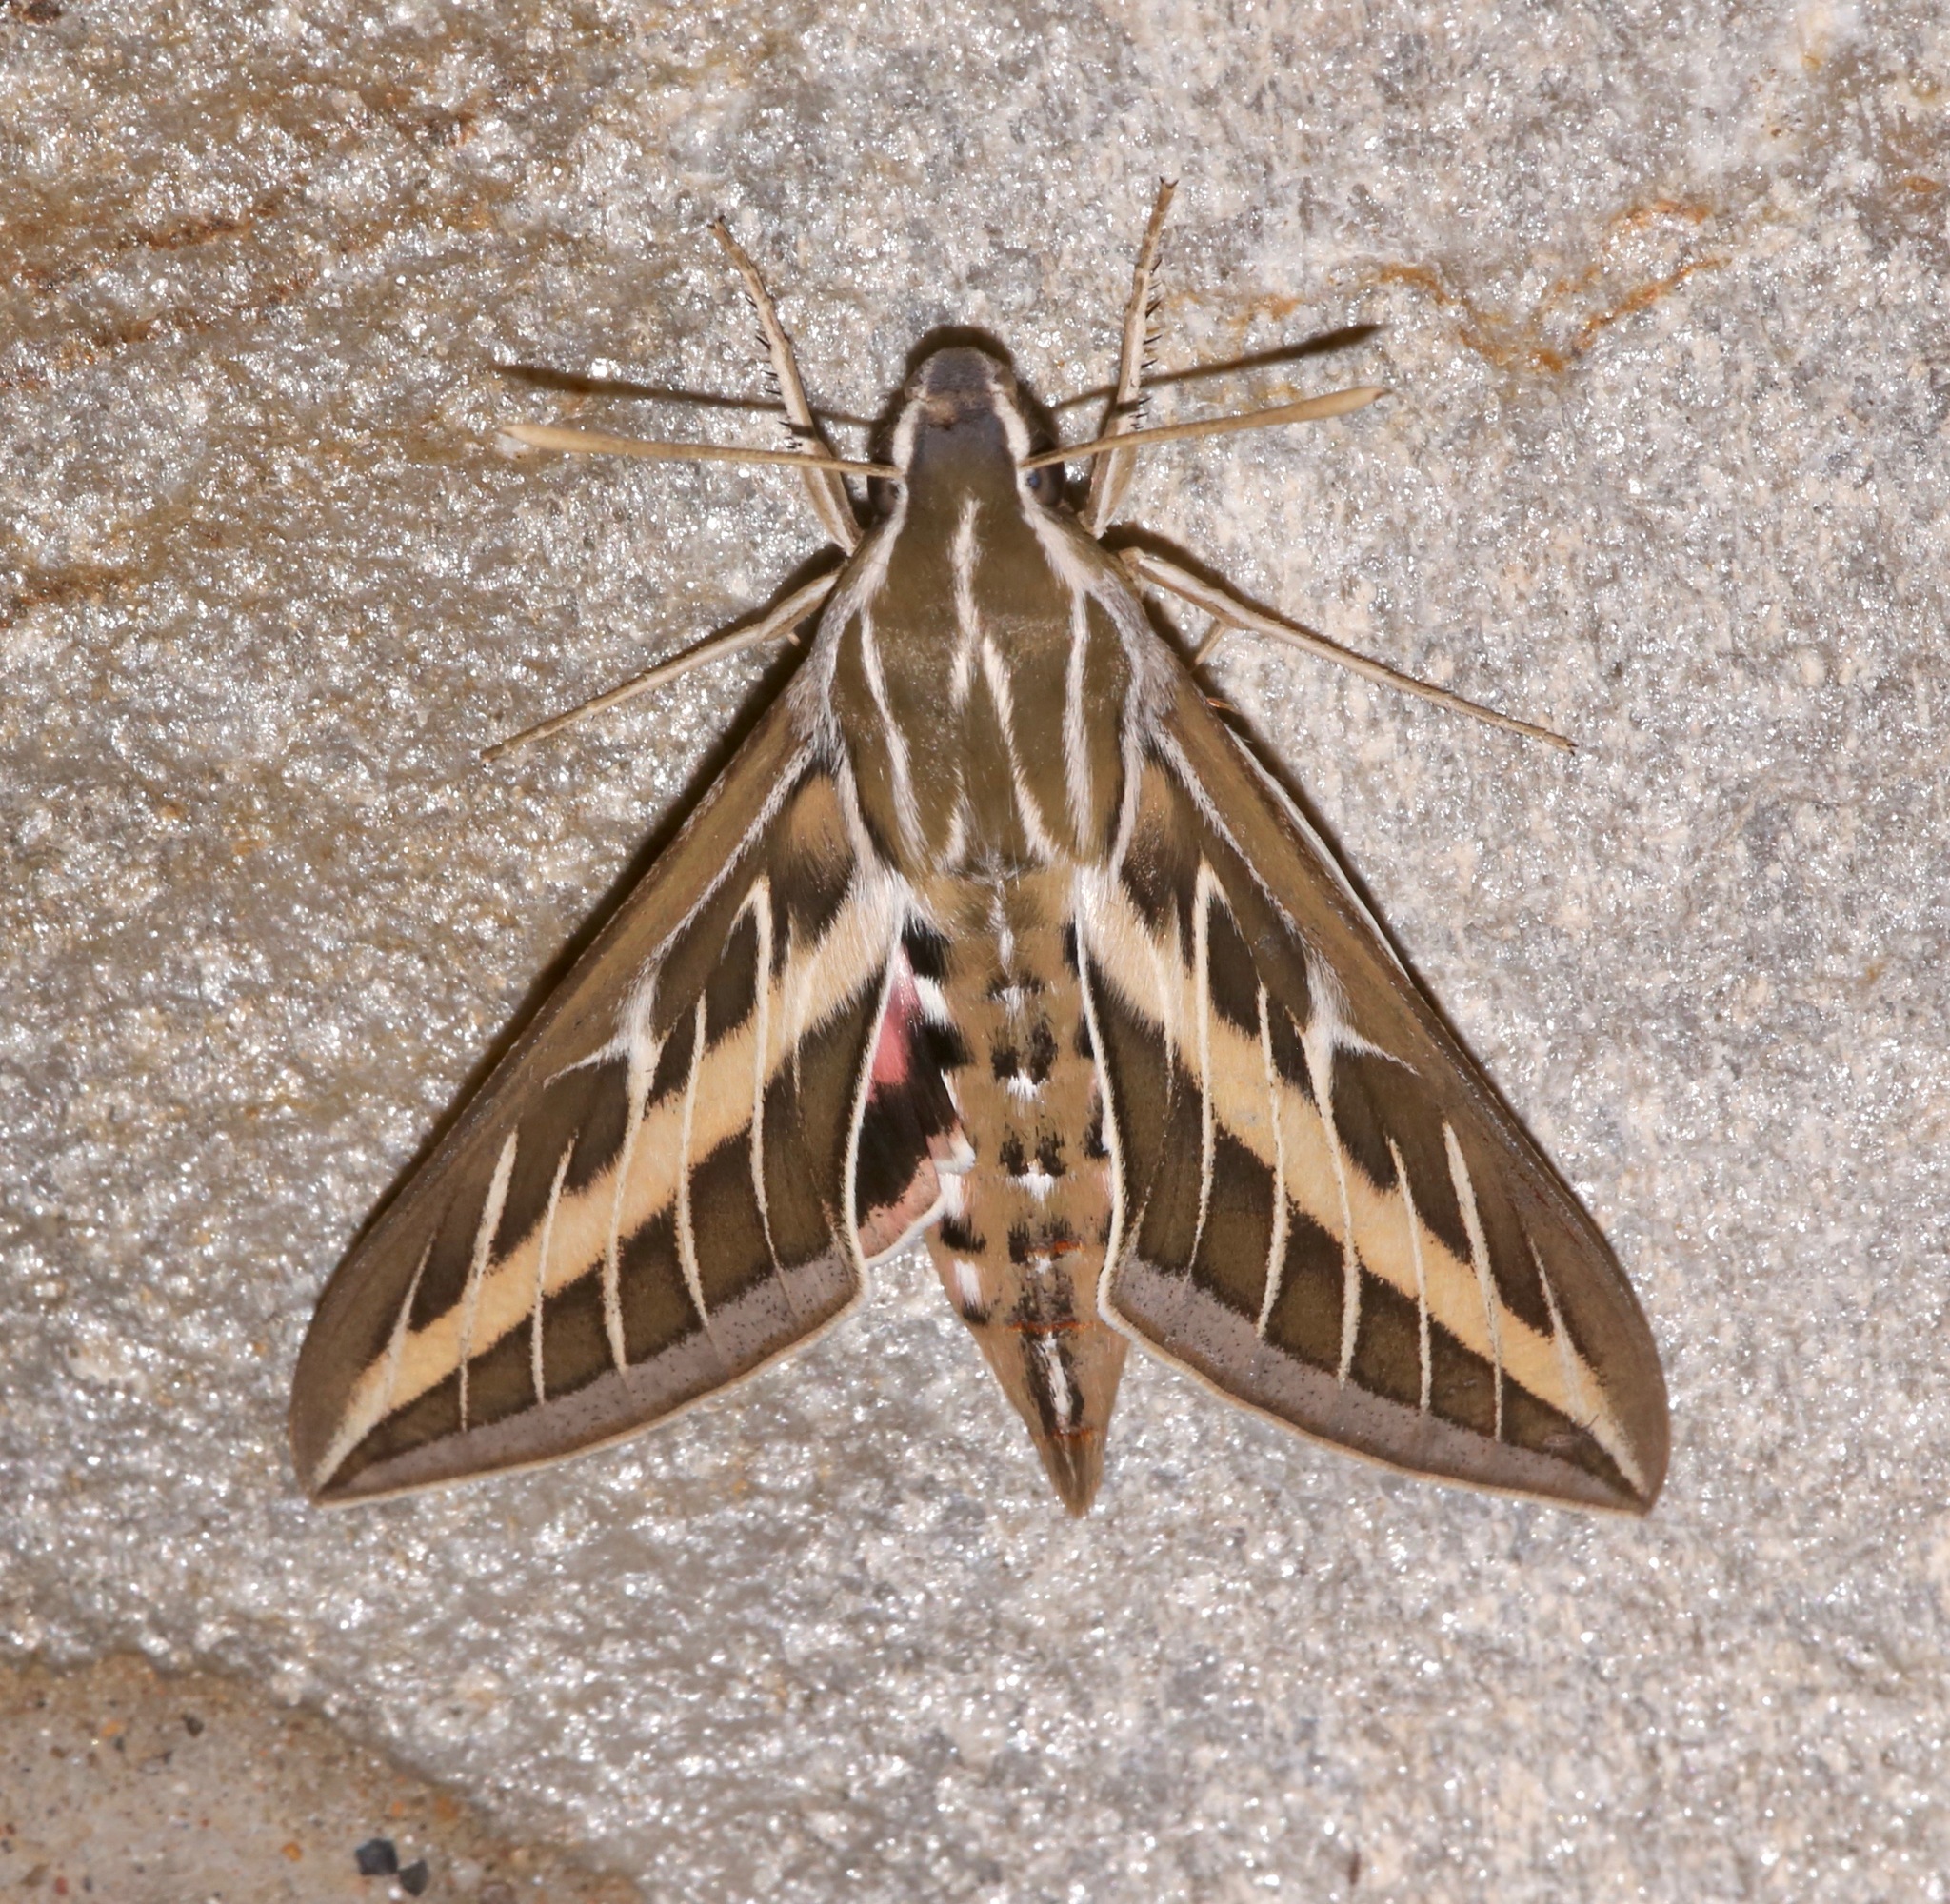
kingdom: Animalia
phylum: Arthropoda
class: Insecta
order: Lepidoptera
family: Sphingidae
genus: Hyles
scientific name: Hyles lineata
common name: White-lined sphinx
